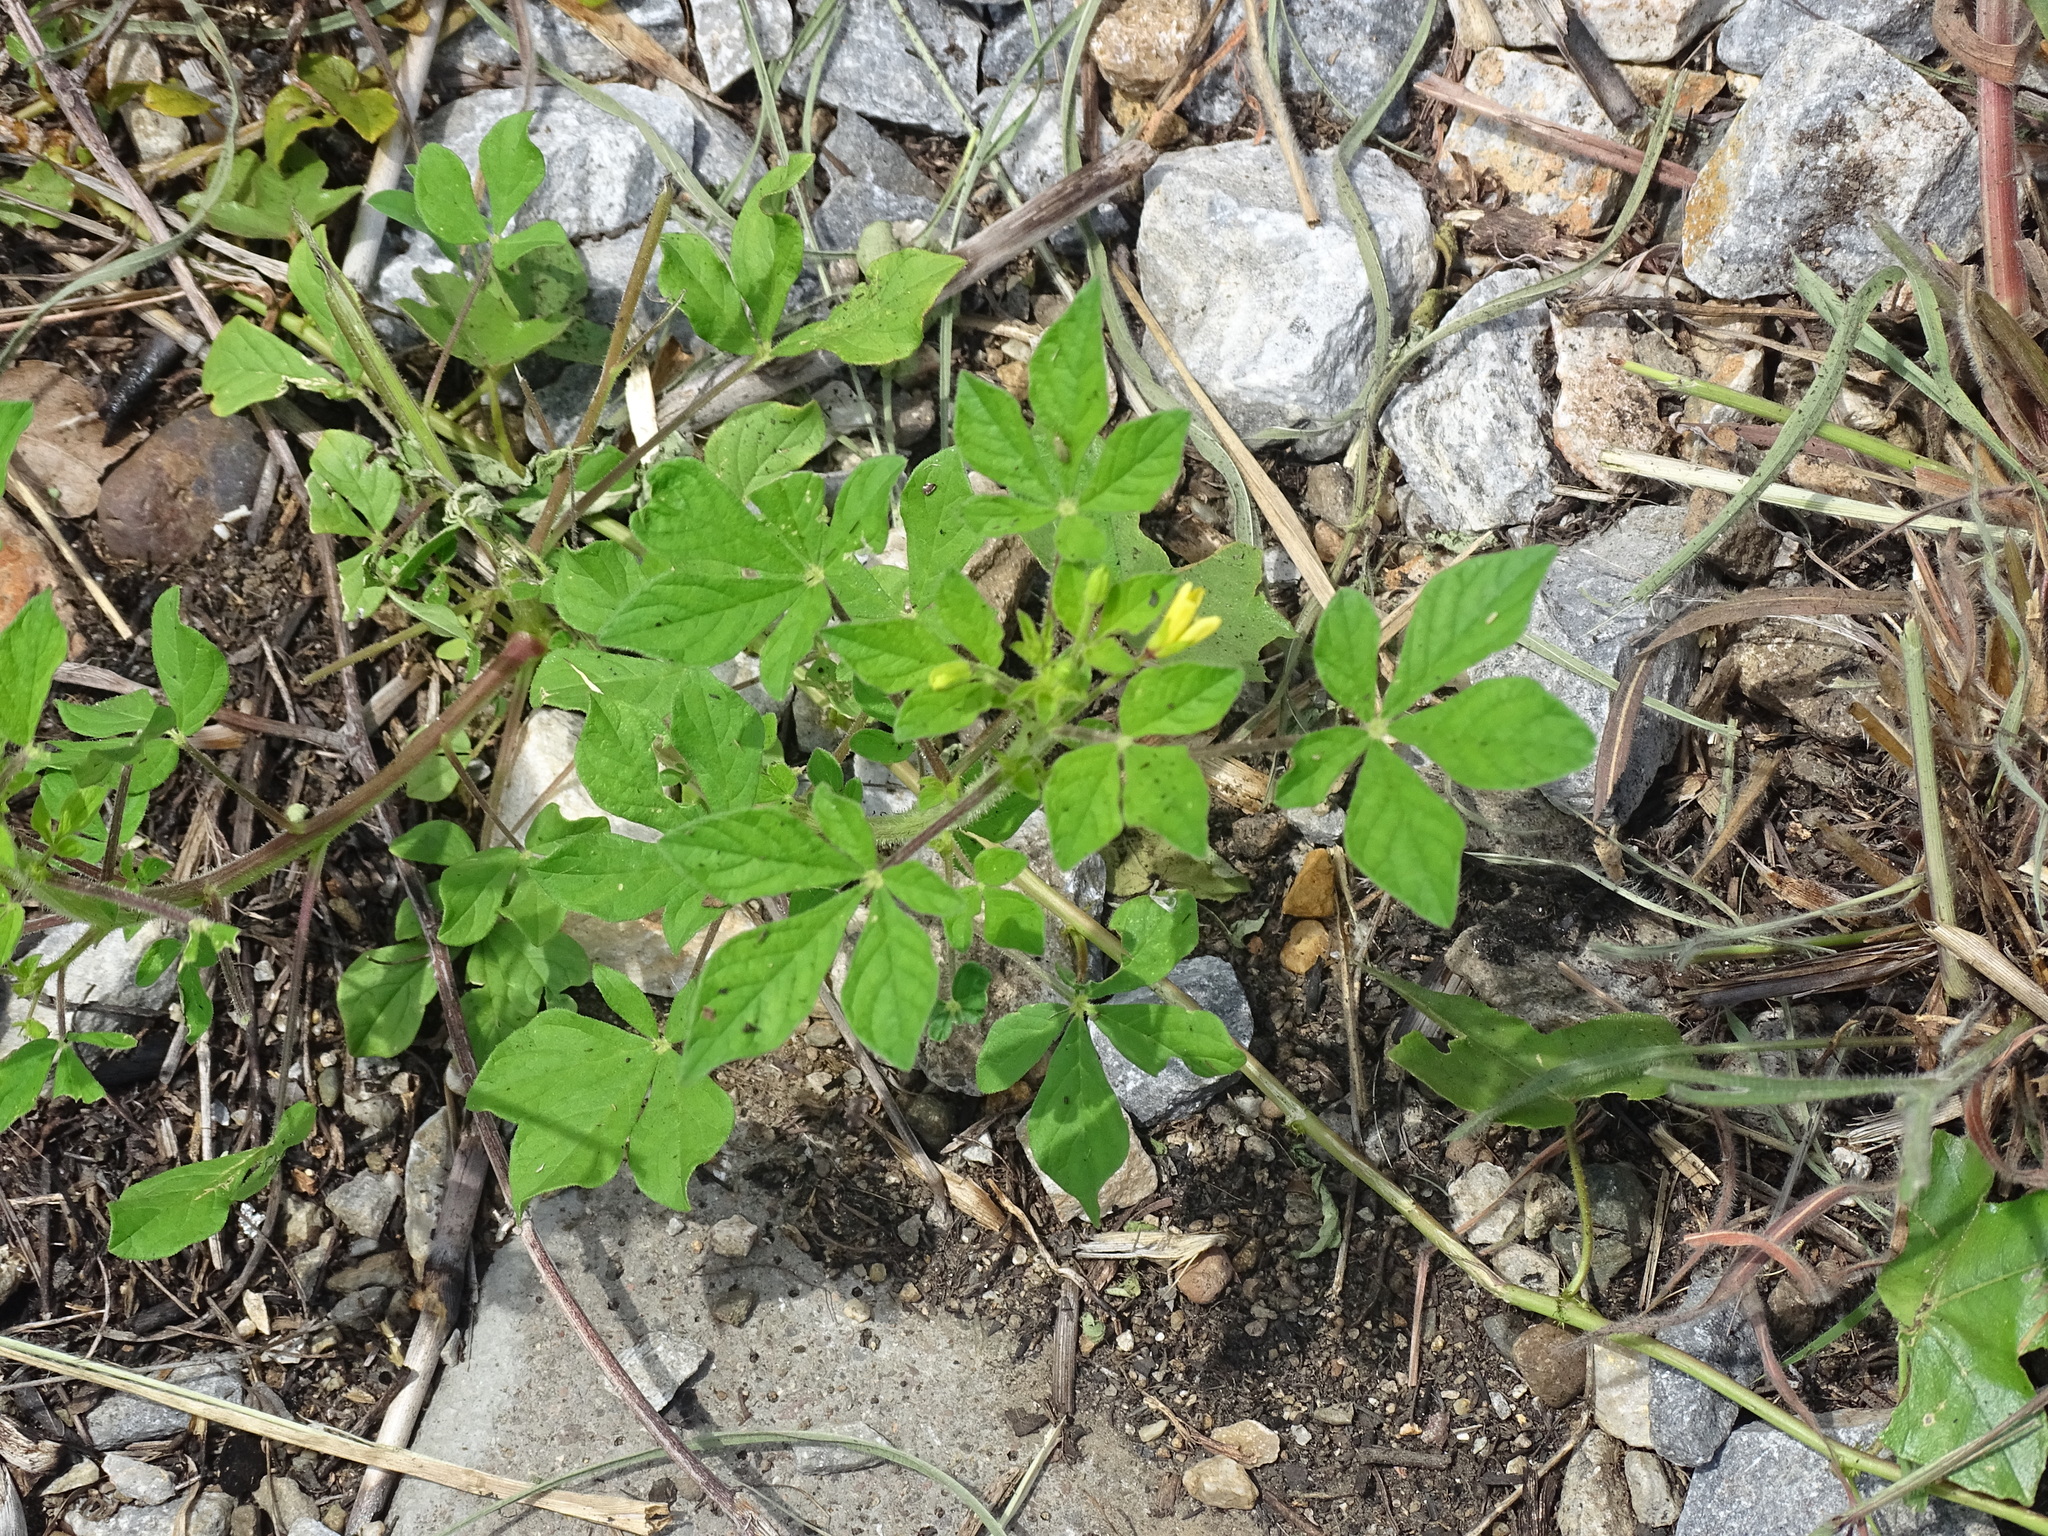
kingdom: Plantae
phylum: Tracheophyta
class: Magnoliopsida
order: Brassicales
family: Cleomaceae
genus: Arivela
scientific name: Arivela viscosa
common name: Asian spiderflower
